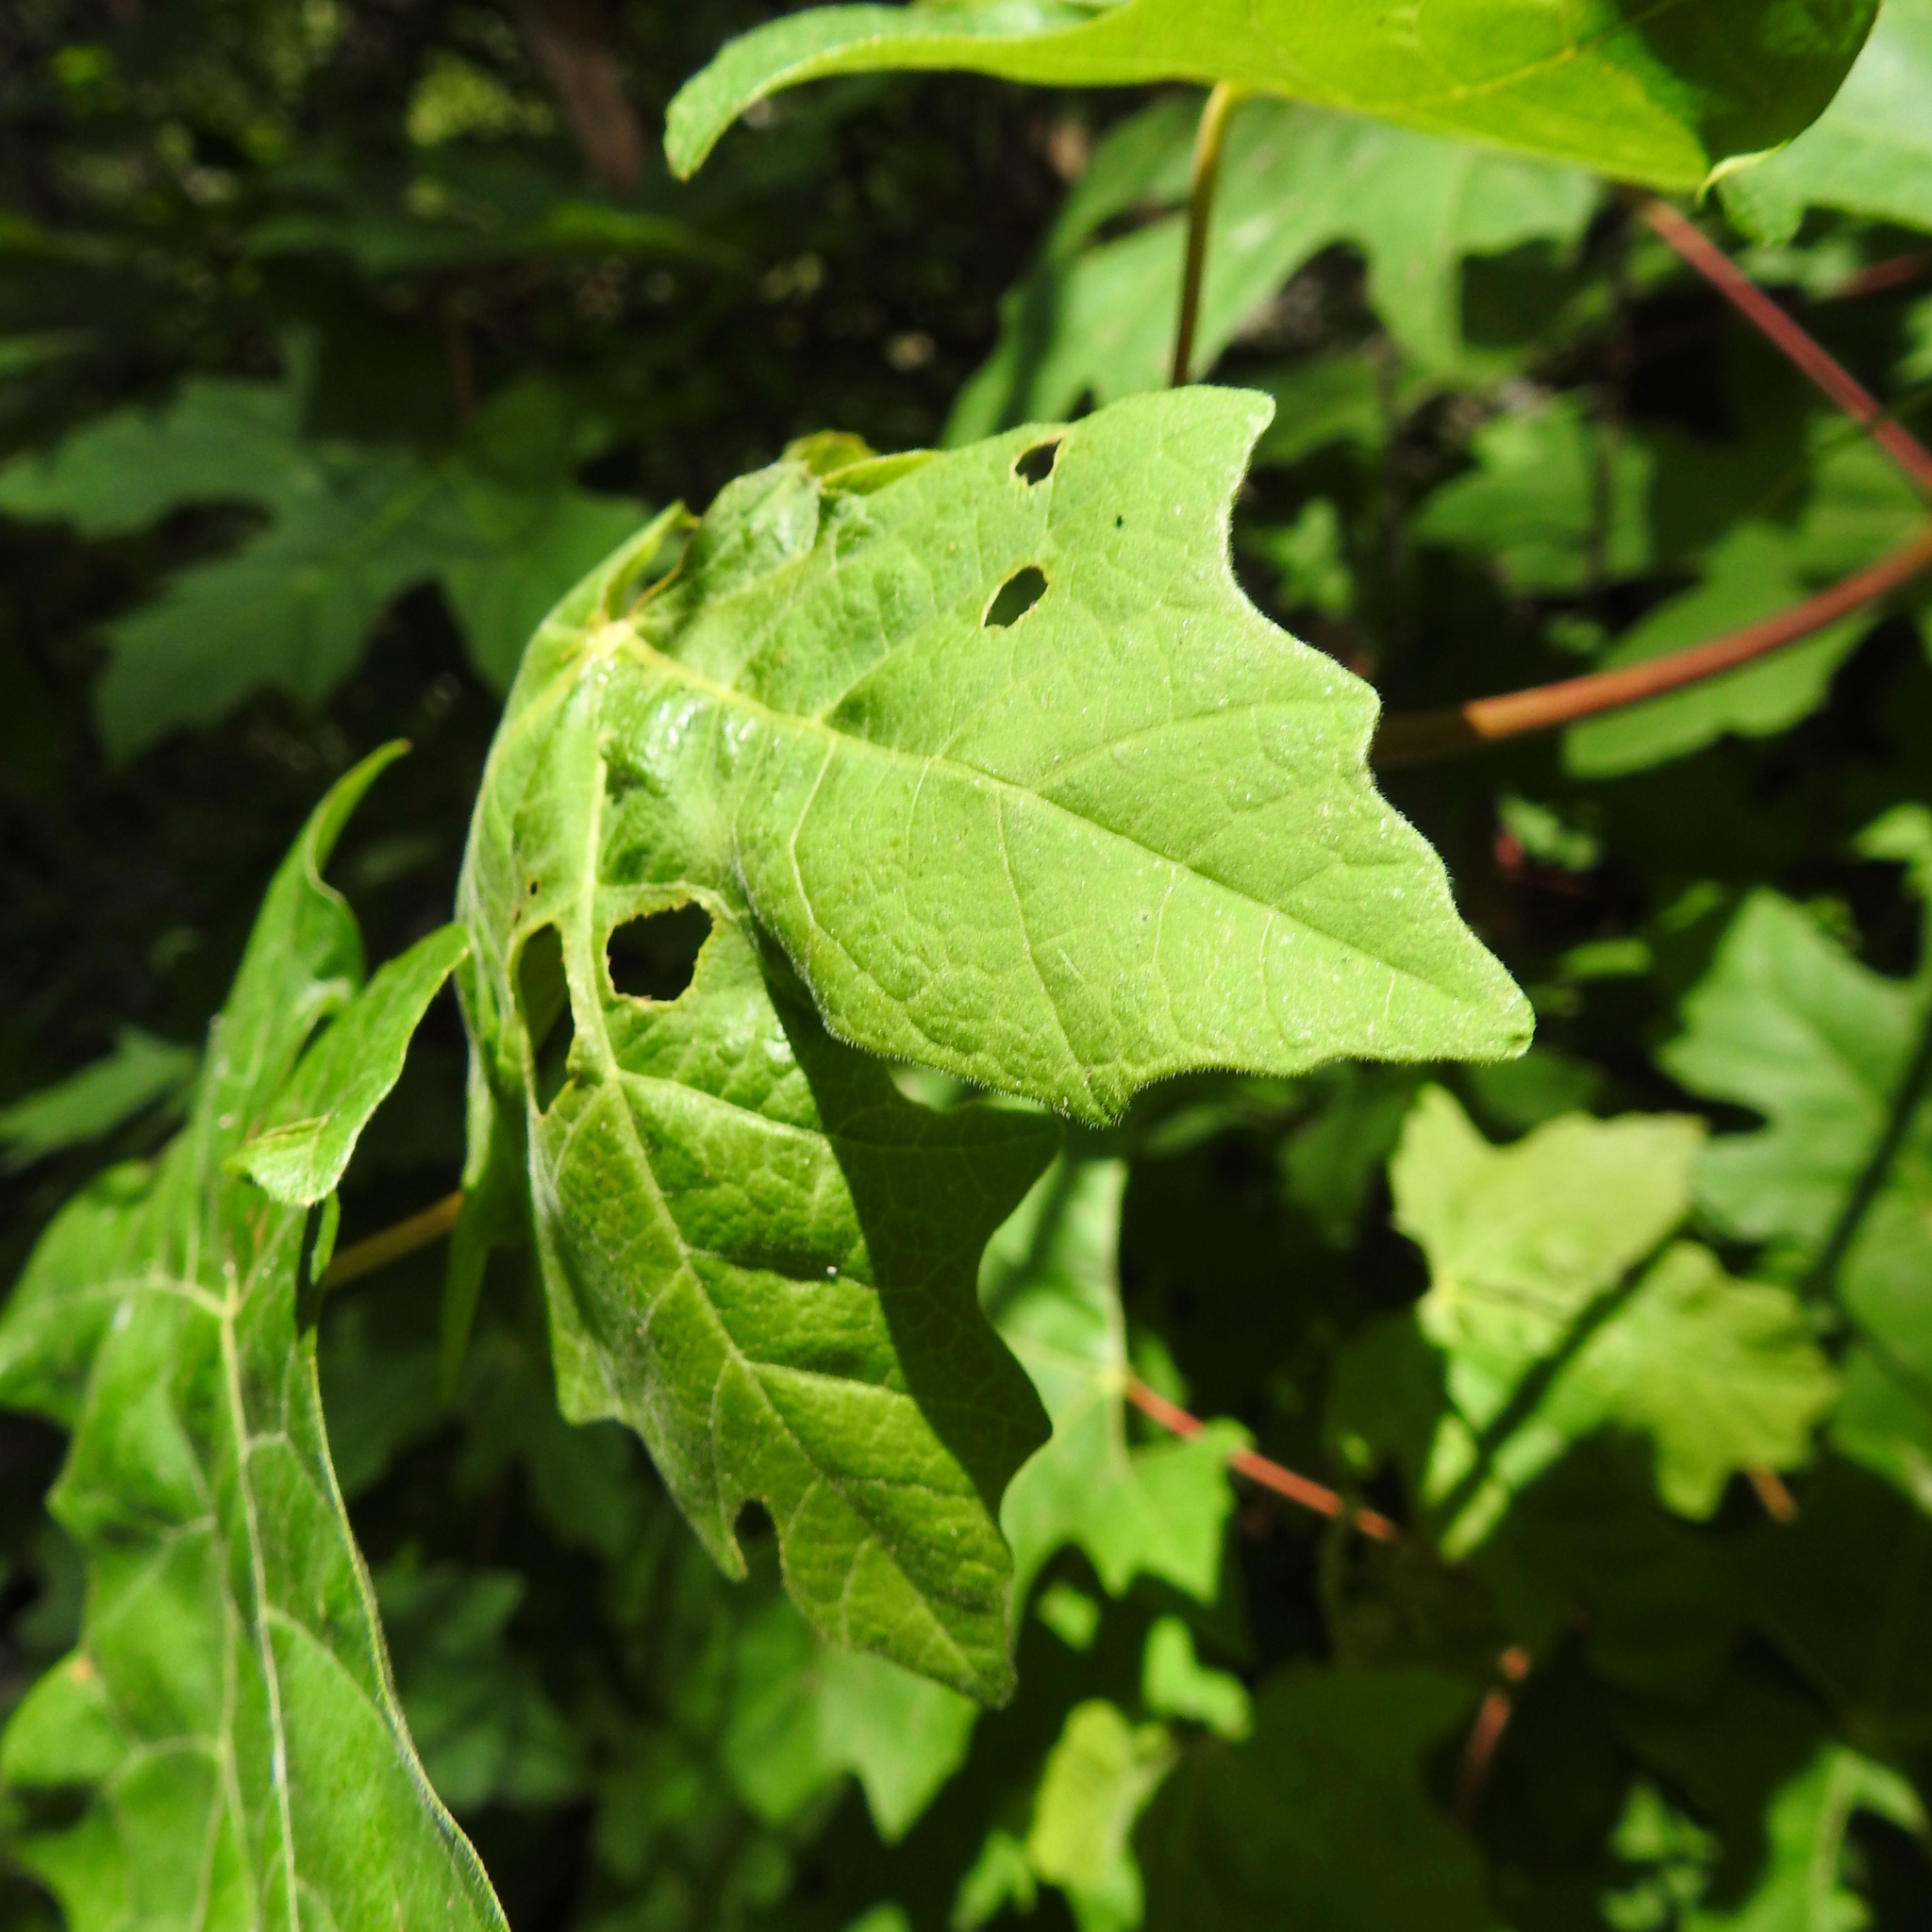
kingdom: Plantae
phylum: Tracheophyta
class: Magnoliopsida
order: Sapindales
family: Sapindaceae
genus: Acer
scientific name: Acer macrophyllum
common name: Oregon maple
